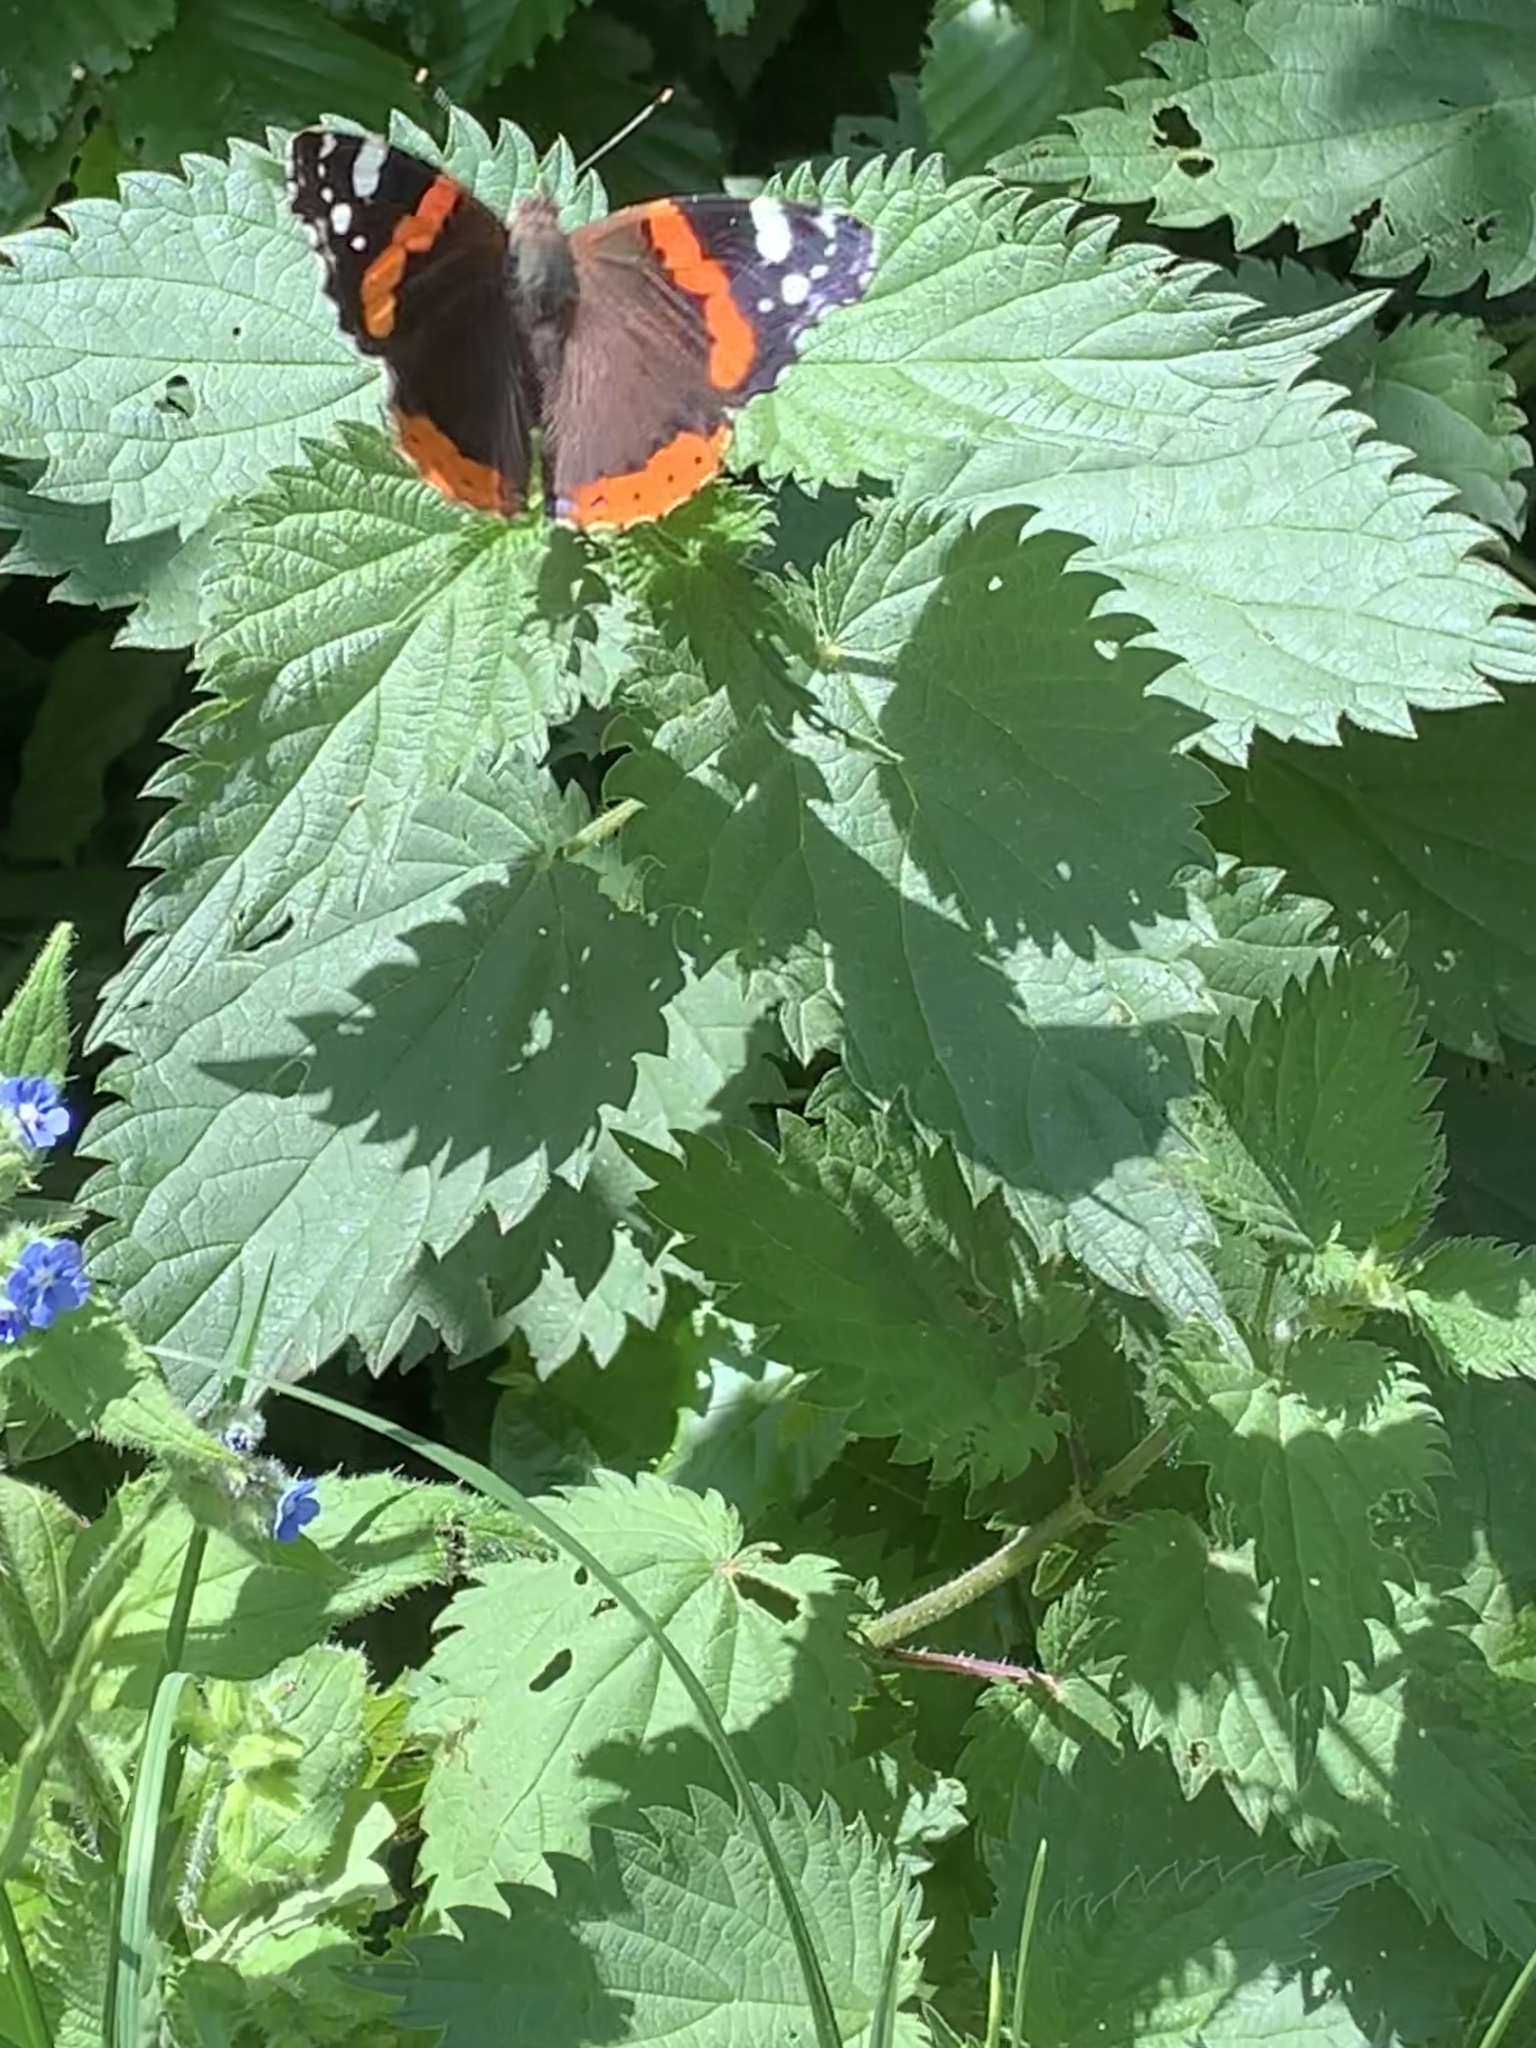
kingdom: Animalia
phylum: Arthropoda
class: Insecta
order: Lepidoptera
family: Nymphalidae
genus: Vanessa
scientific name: Vanessa atalanta
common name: Red admiral
